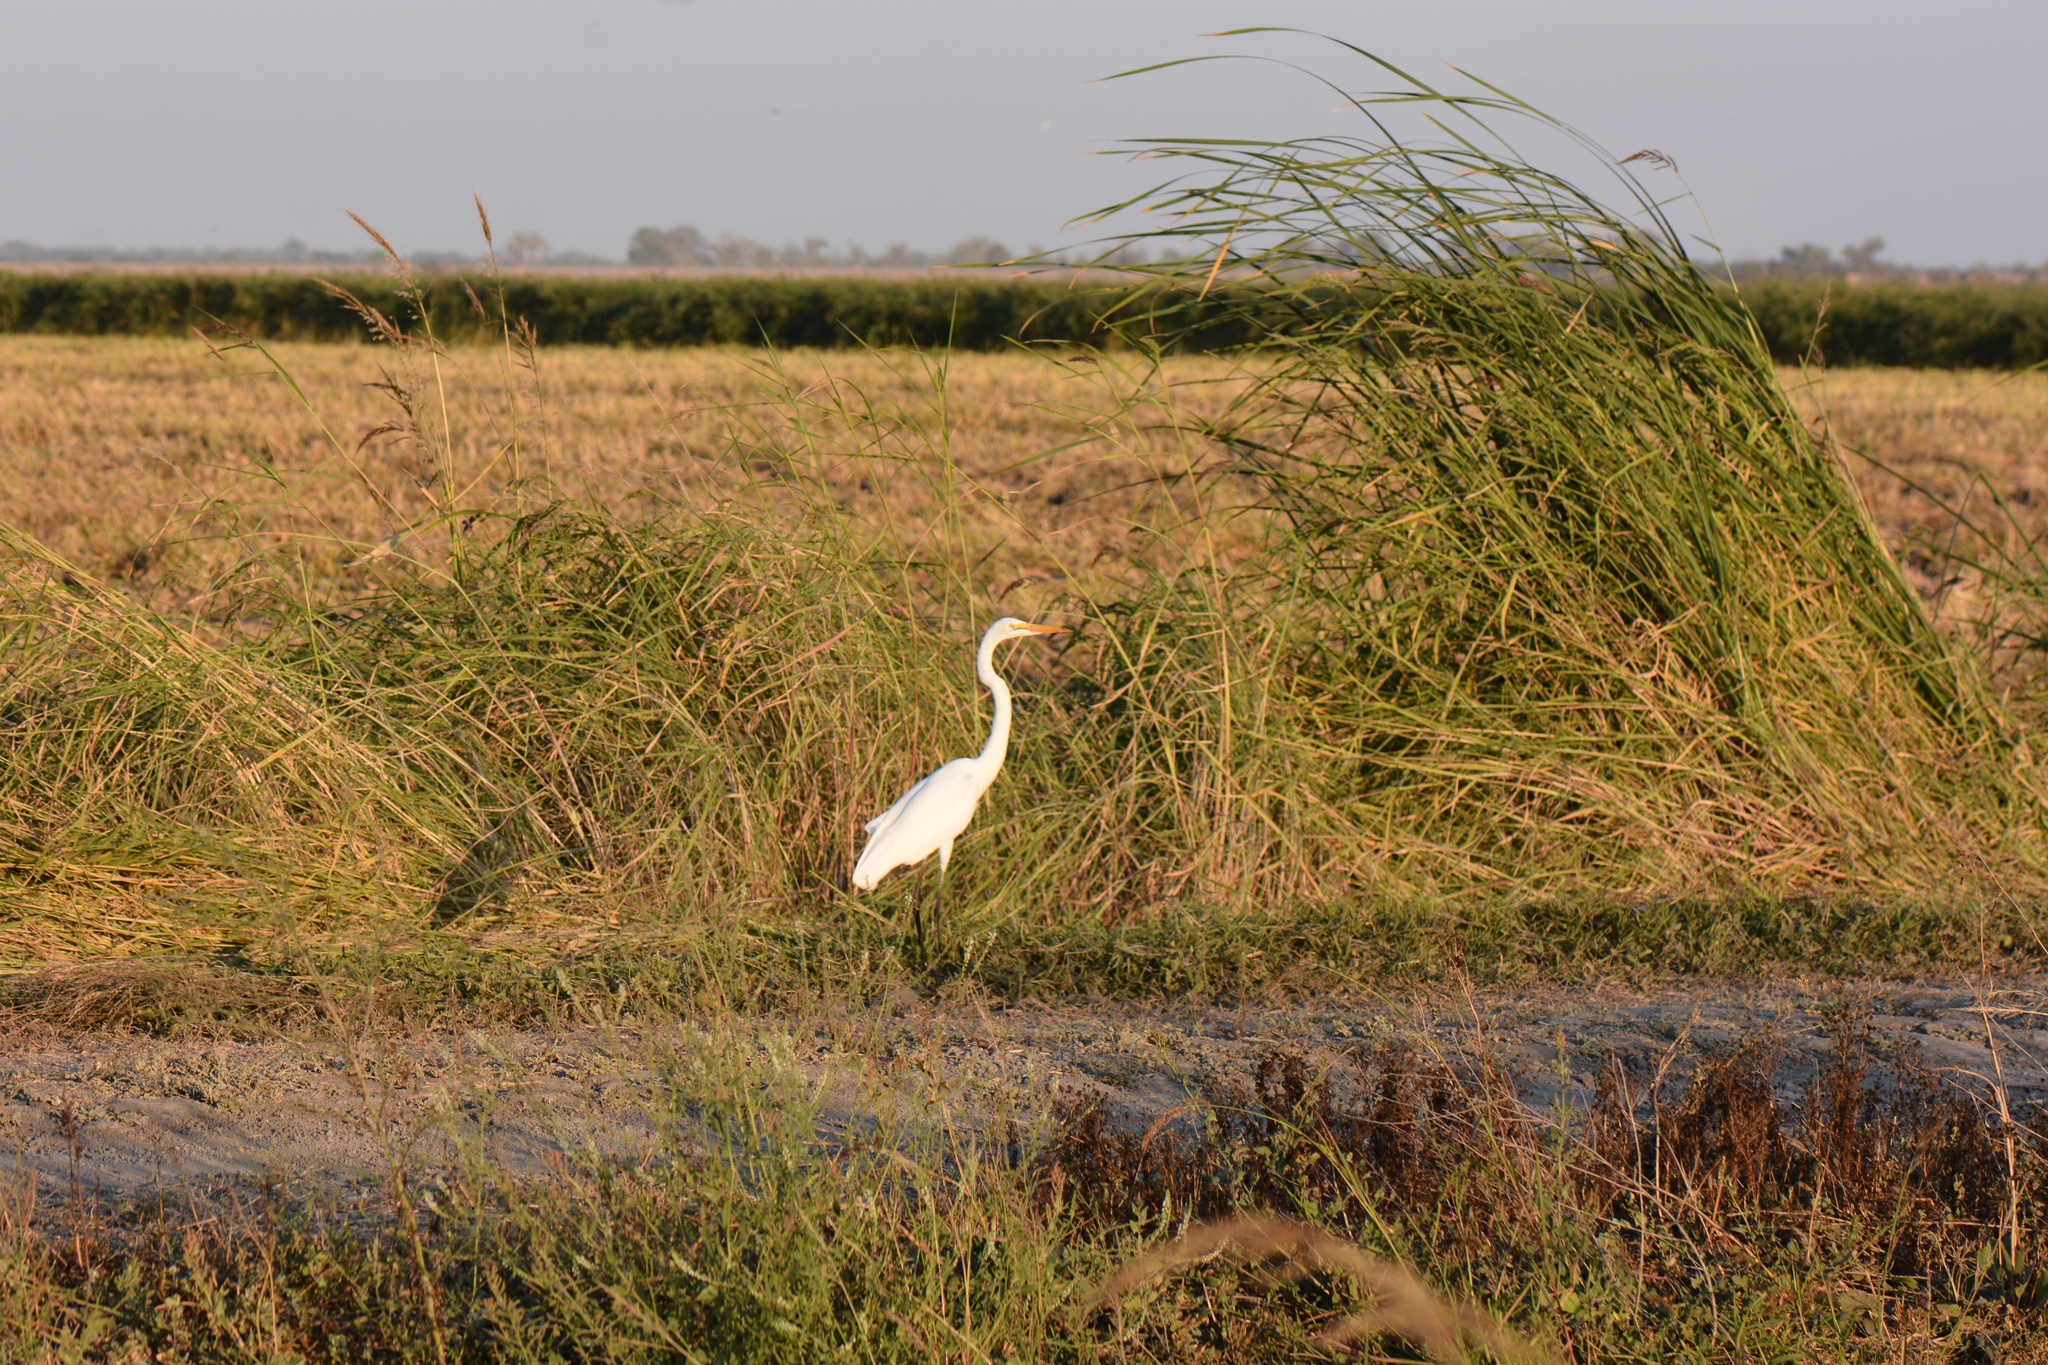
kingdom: Animalia
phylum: Chordata
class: Aves
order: Pelecaniformes
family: Ardeidae
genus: Ardea
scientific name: Ardea alba
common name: Great egret
